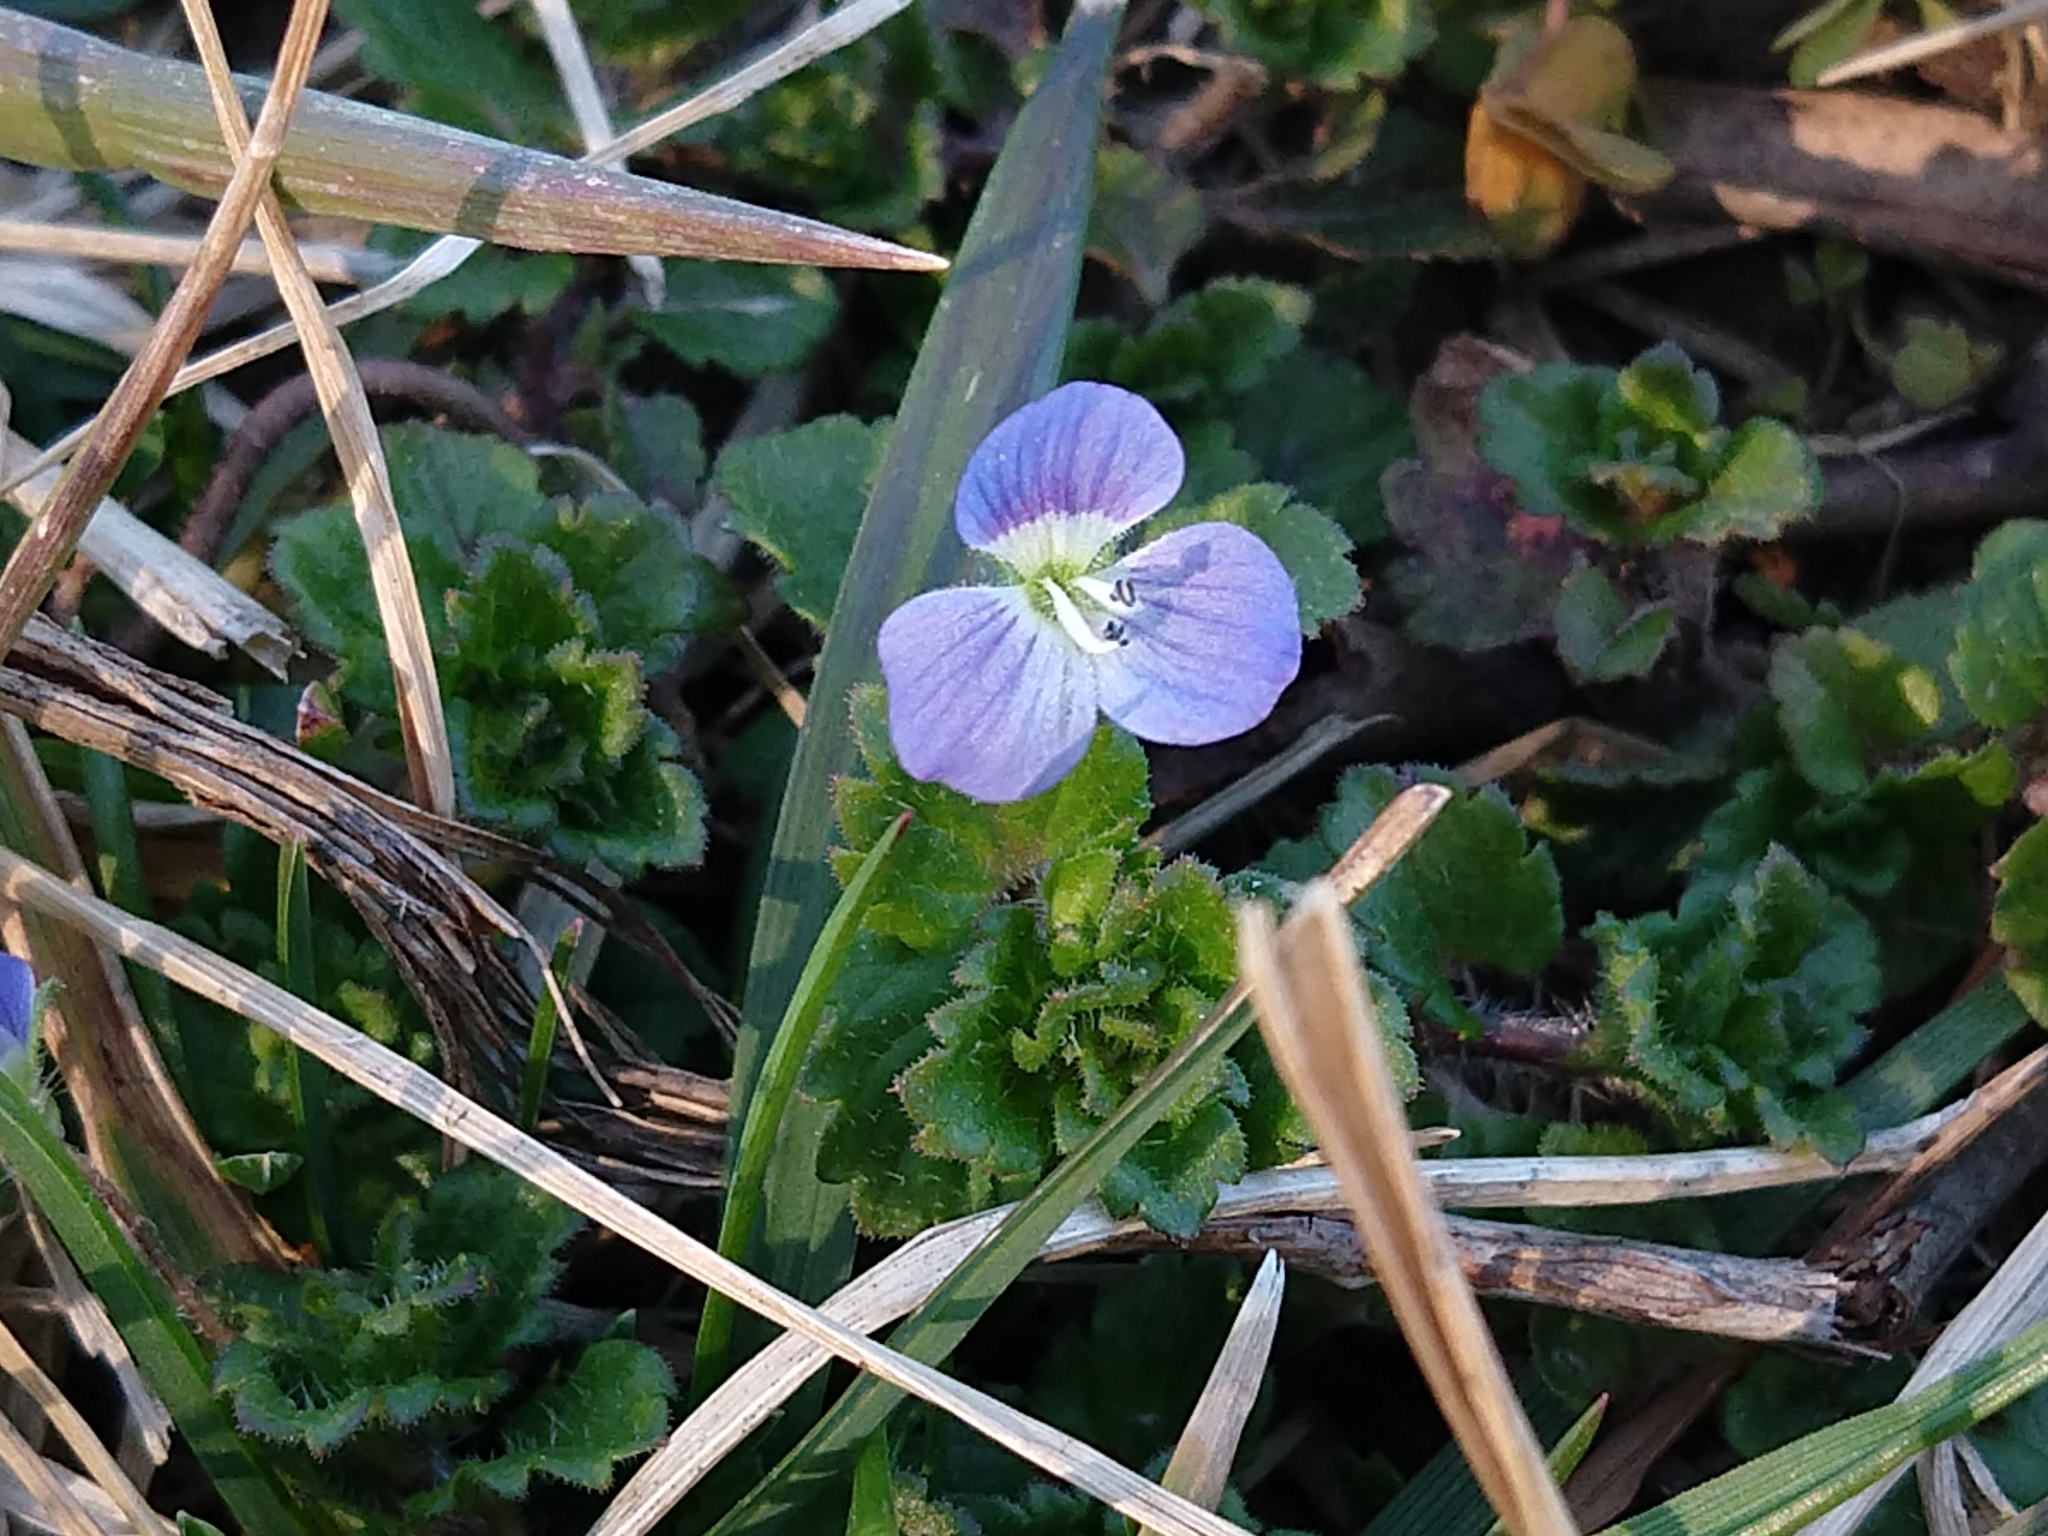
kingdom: Plantae
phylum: Tracheophyta
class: Magnoliopsida
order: Lamiales
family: Plantaginaceae
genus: Veronica
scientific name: Veronica persica
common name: Common field-speedwell
